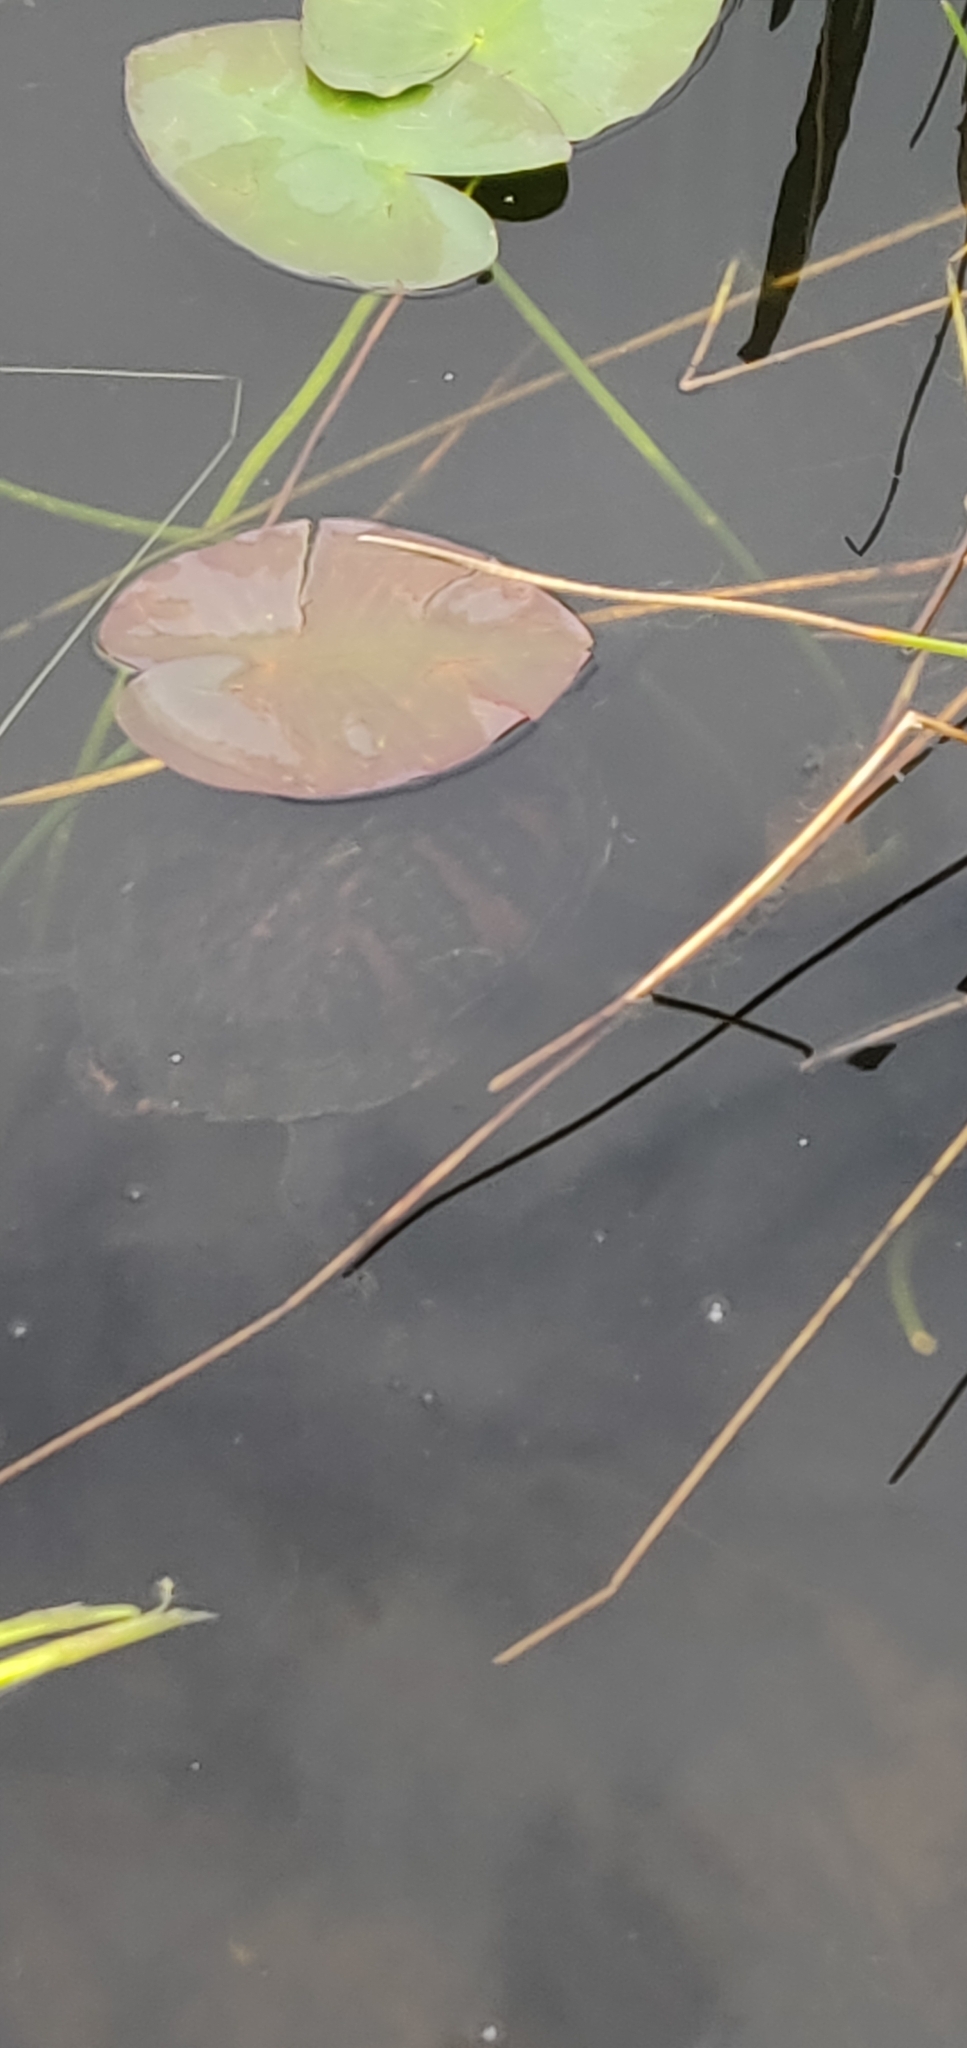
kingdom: Animalia
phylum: Chordata
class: Testudines
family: Emydidae
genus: Pseudemys
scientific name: Pseudemys nelsoni
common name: Florida red-bellied turtle
